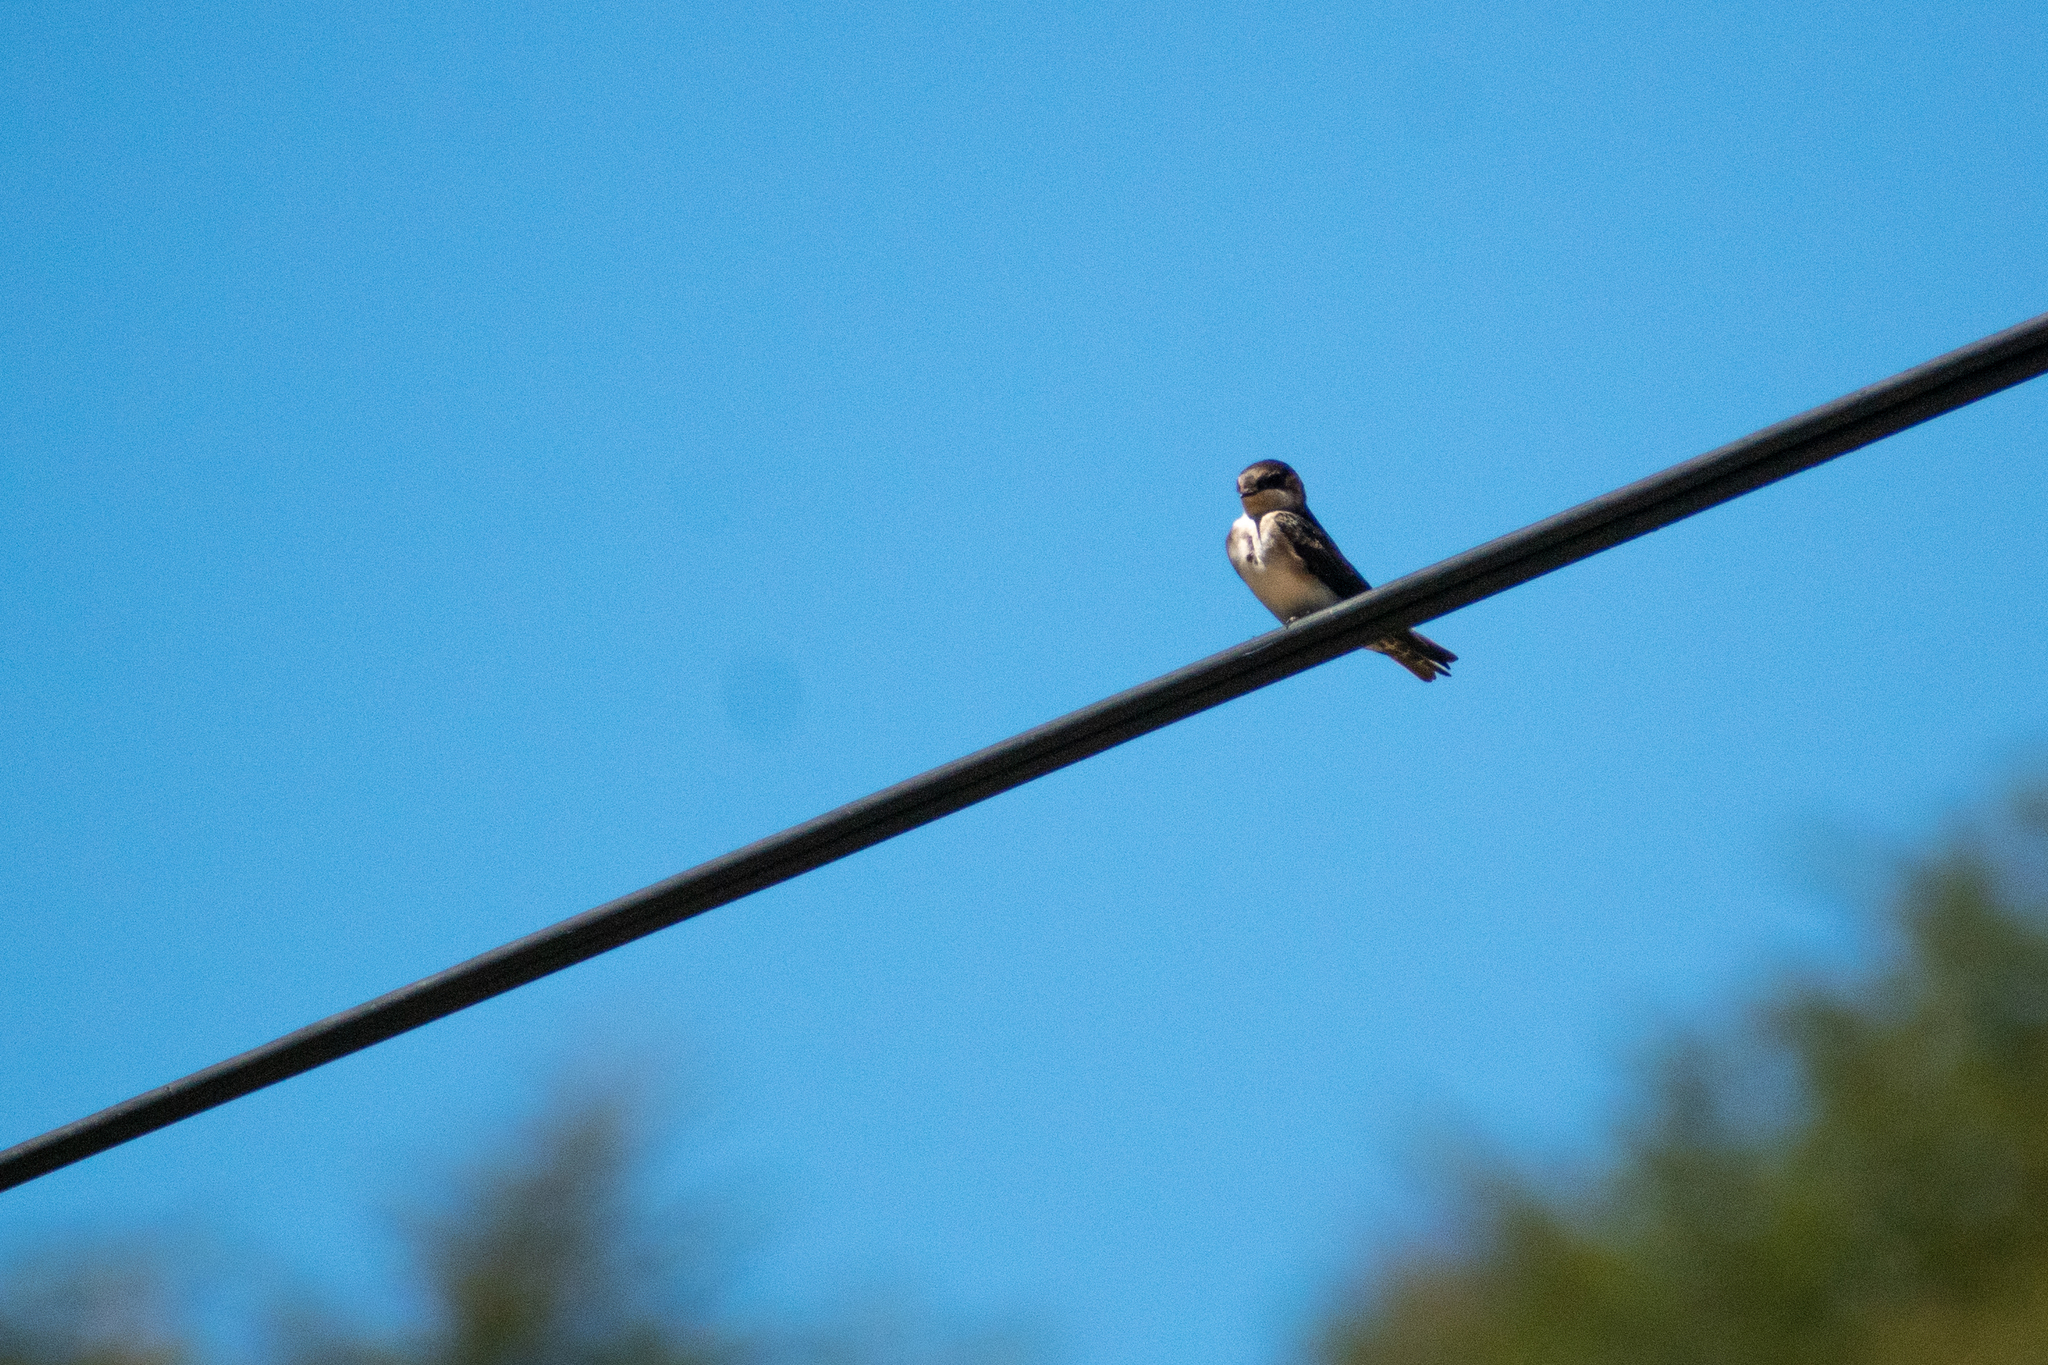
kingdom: Animalia
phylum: Chordata
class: Aves
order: Passeriformes
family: Hirundinidae
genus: Notiochelidon
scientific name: Notiochelidon cyanoleuca
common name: Blue-and-white swallow
